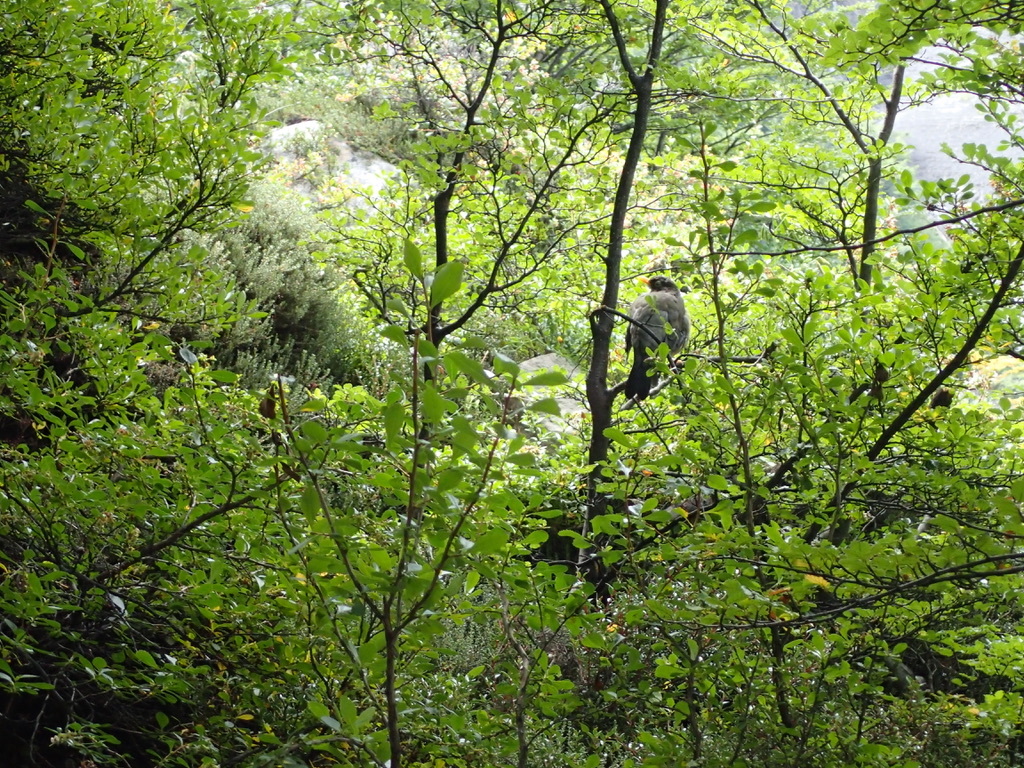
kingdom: Animalia
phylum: Chordata
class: Aves
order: Passeriformes
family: Turdidae
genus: Turdus
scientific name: Turdus falcklandii
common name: Austral thrush
